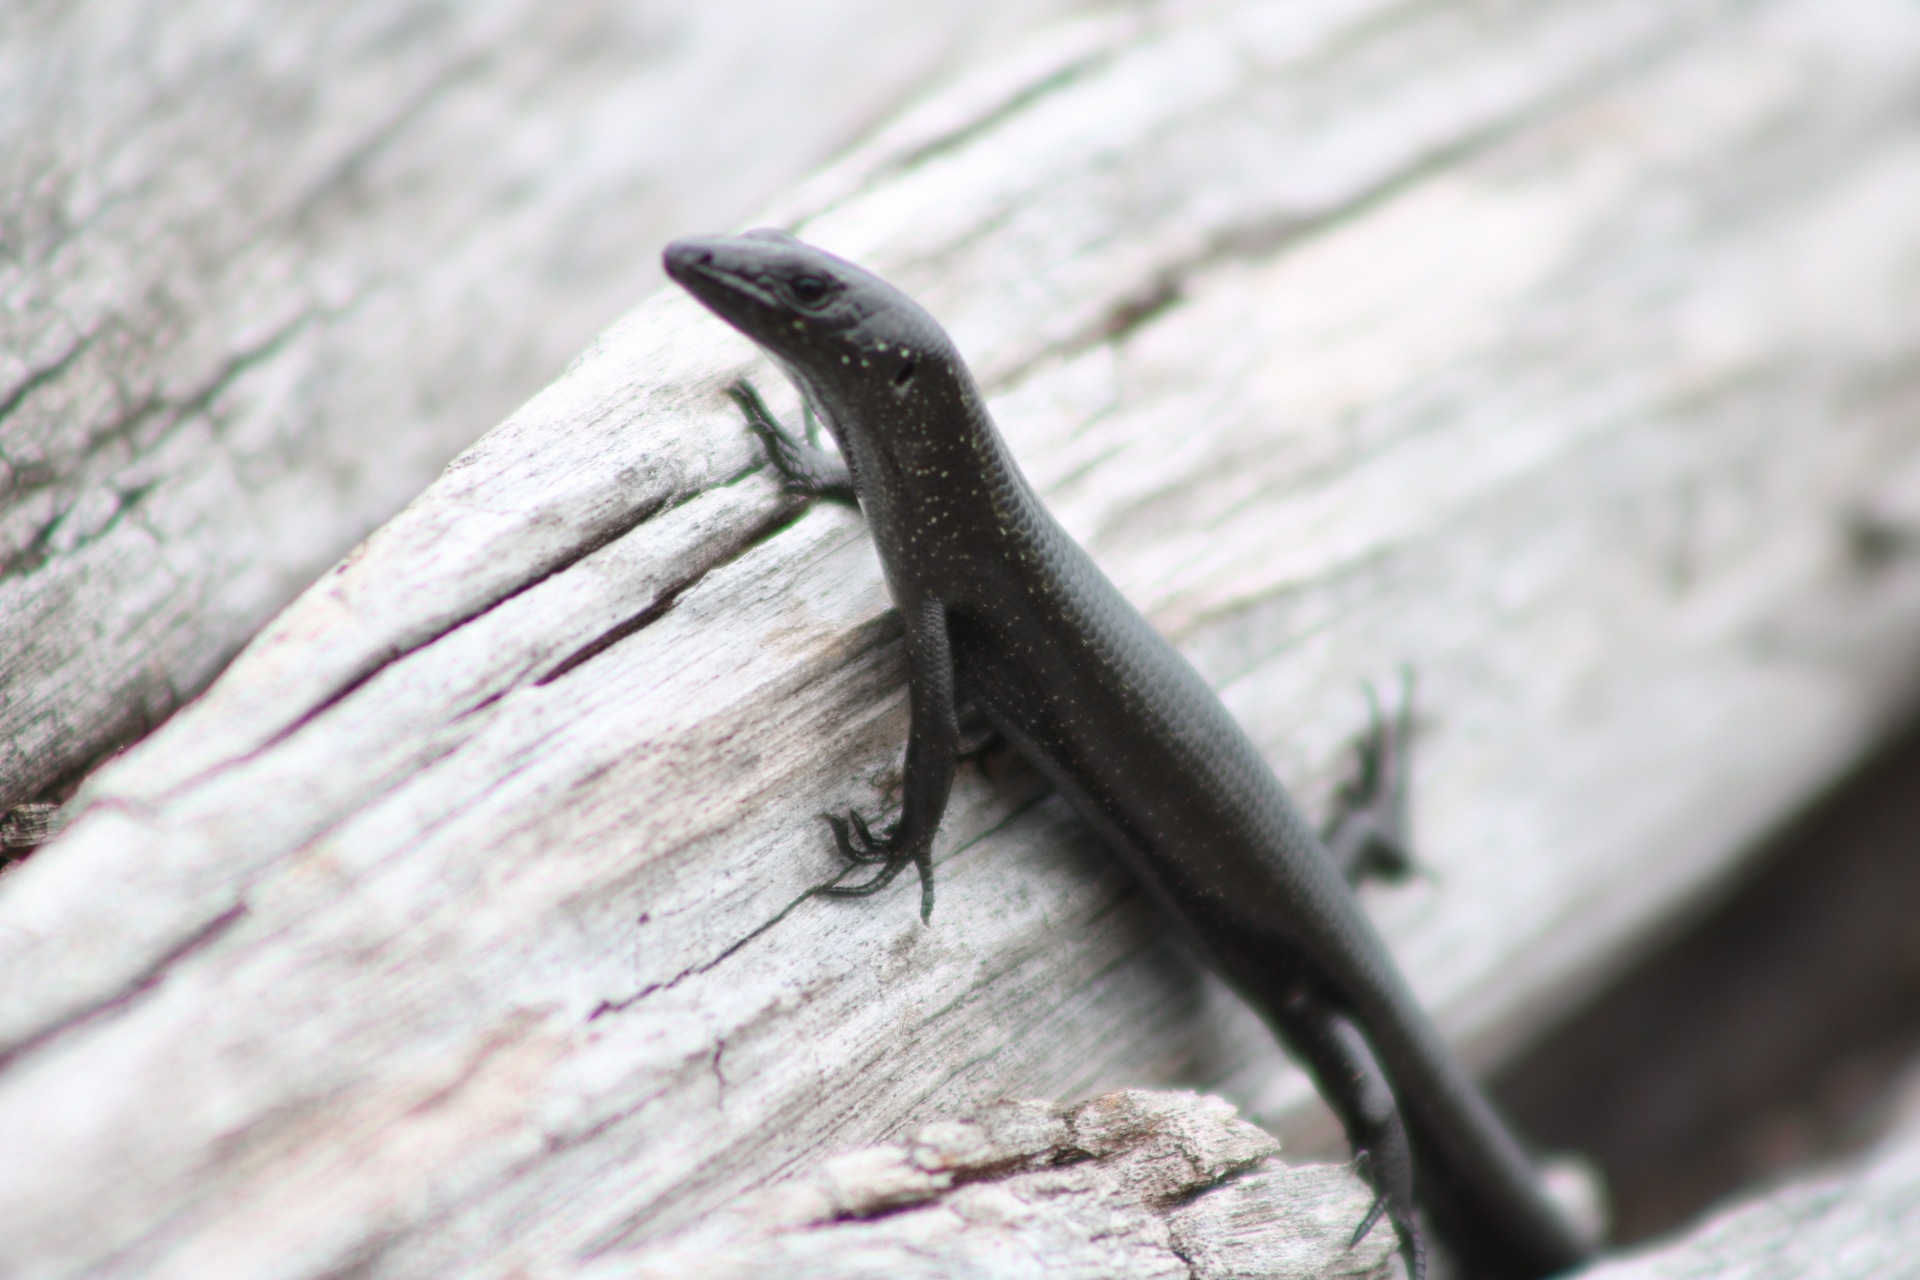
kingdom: Animalia
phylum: Chordata
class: Squamata
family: Scincidae
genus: Oligosoma
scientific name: Oligosoma smithi
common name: Shore skink
